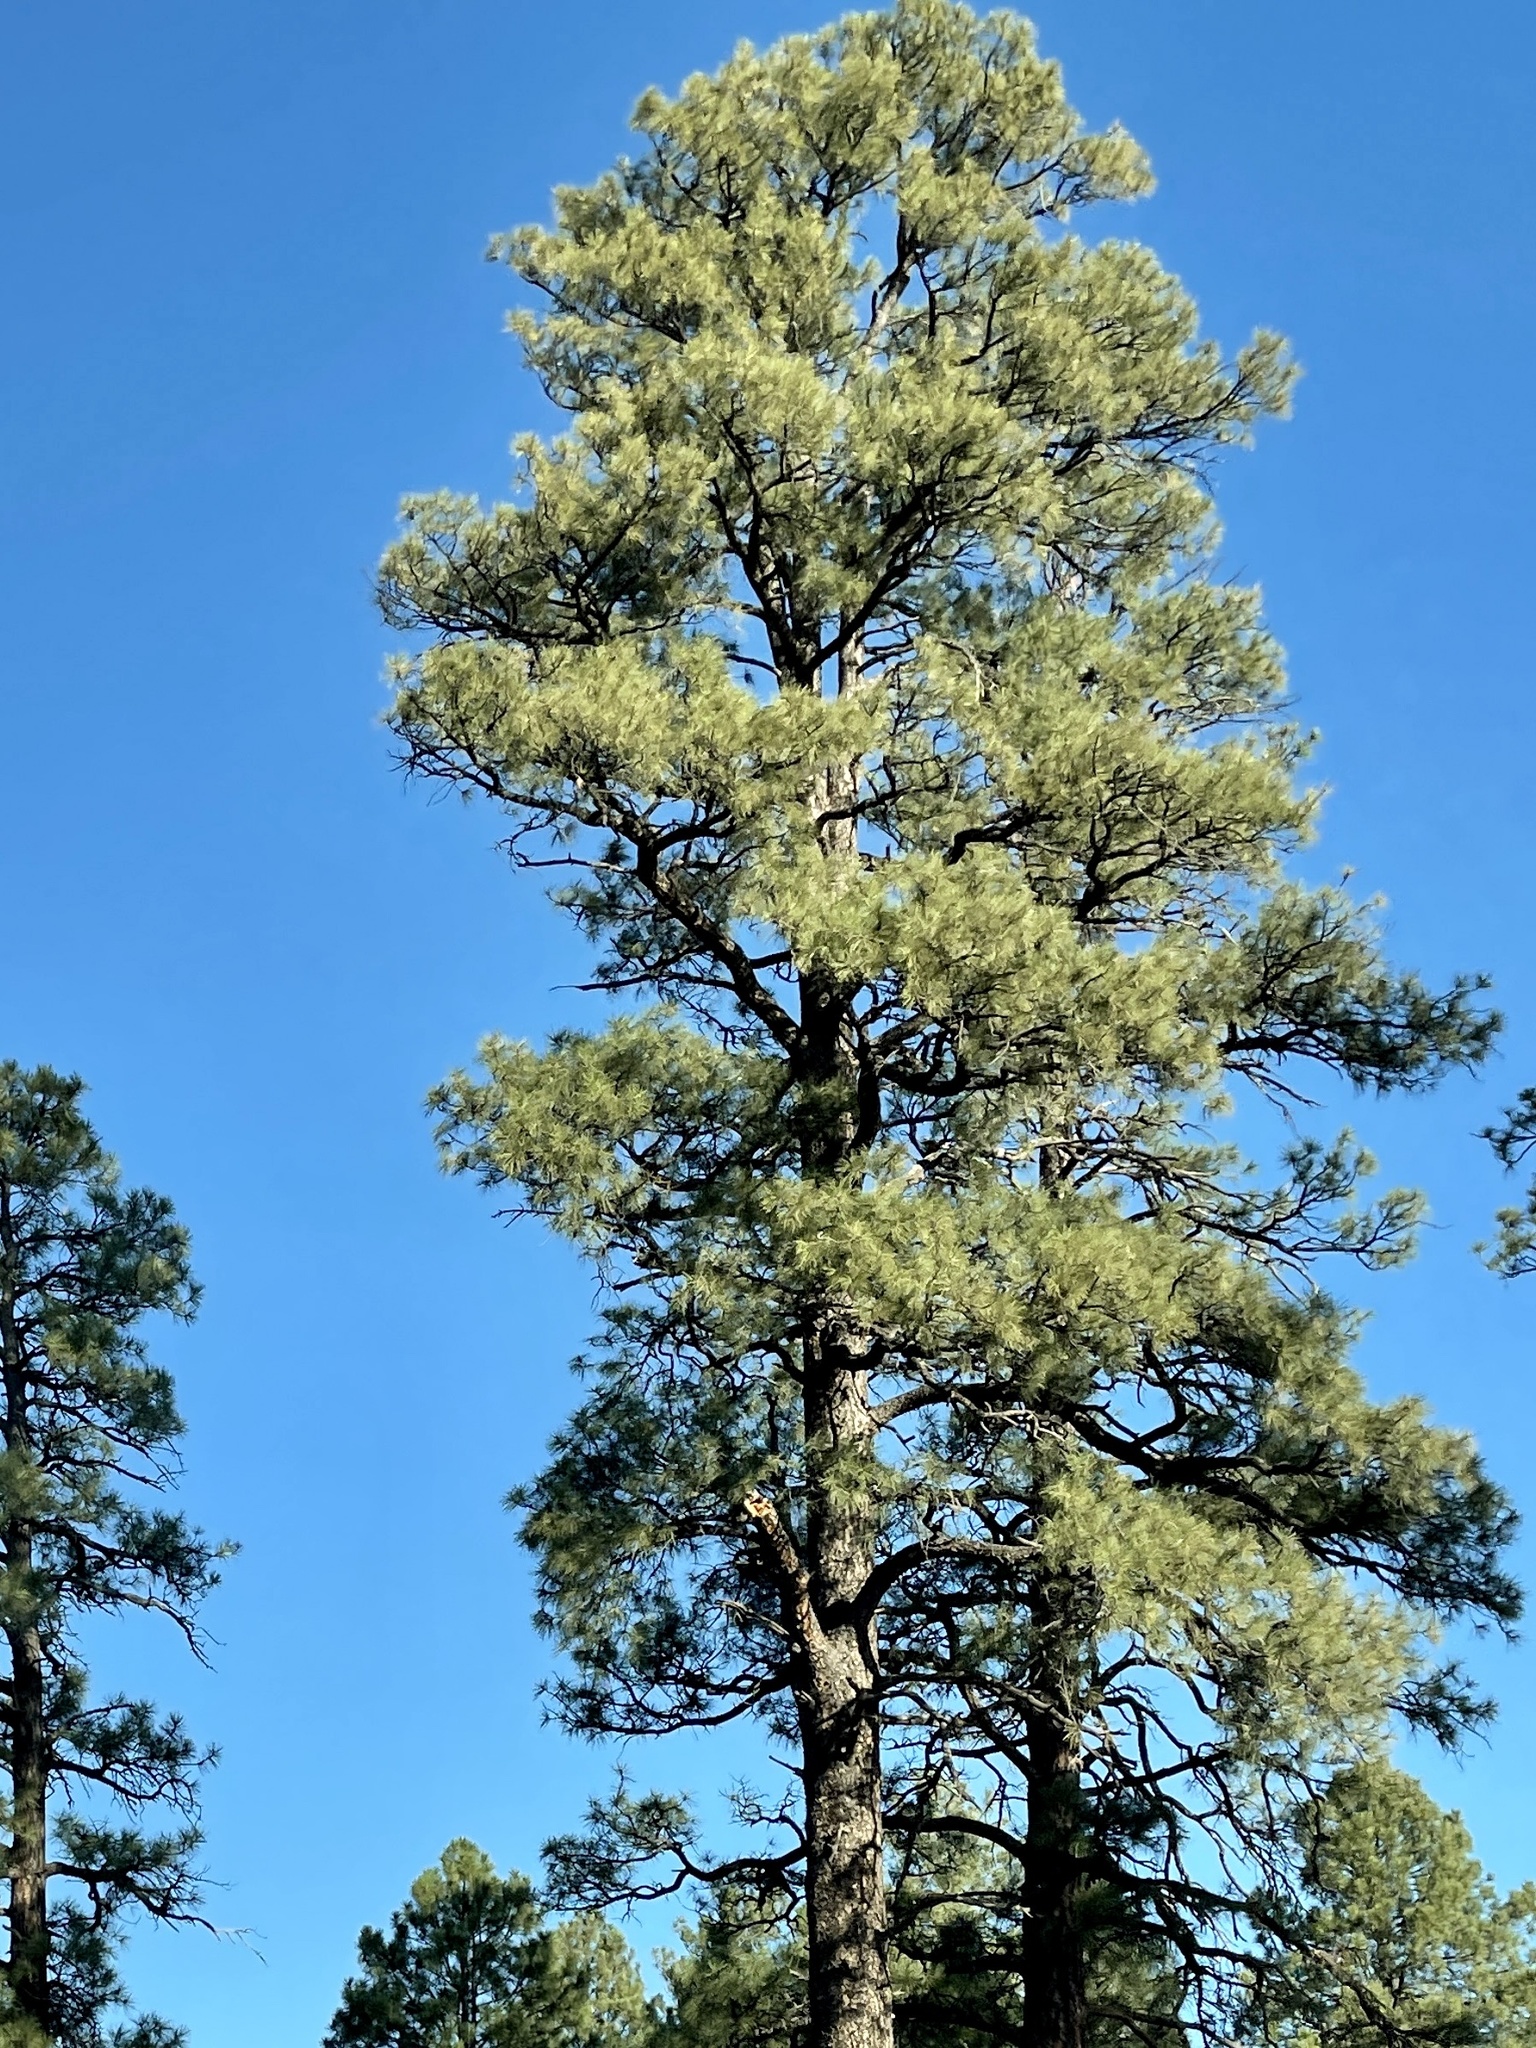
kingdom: Plantae
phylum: Tracheophyta
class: Pinopsida
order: Pinales
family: Pinaceae
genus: Pinus
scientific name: Pinus ponderosa
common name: Western yellow-pine
